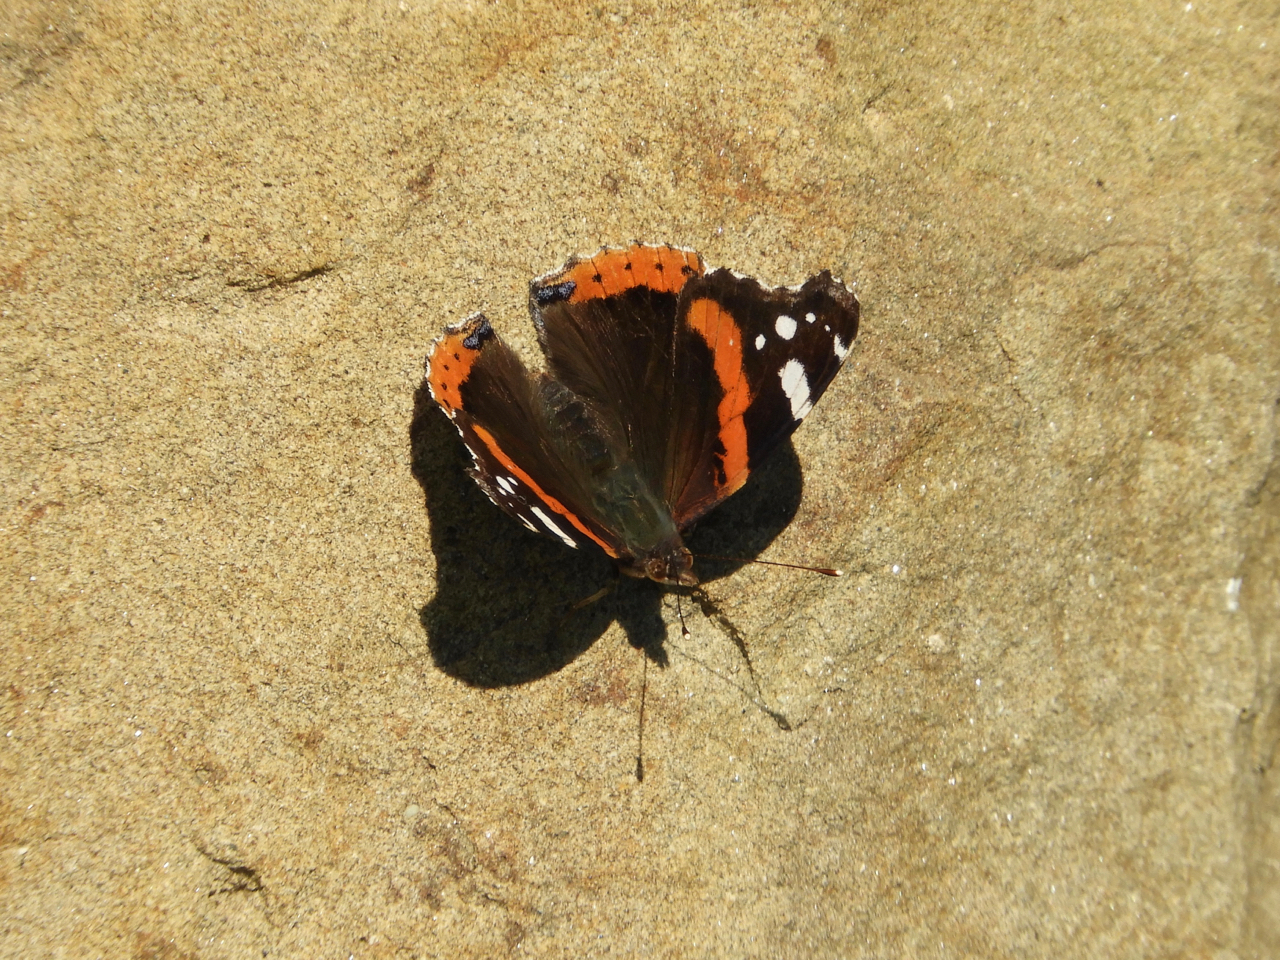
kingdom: Animalia
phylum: Arthropoda
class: Insecta
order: Lepidoptera
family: Nymphalidae
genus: Vanessa
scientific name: Vanessa atalanta
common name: Red admiral
